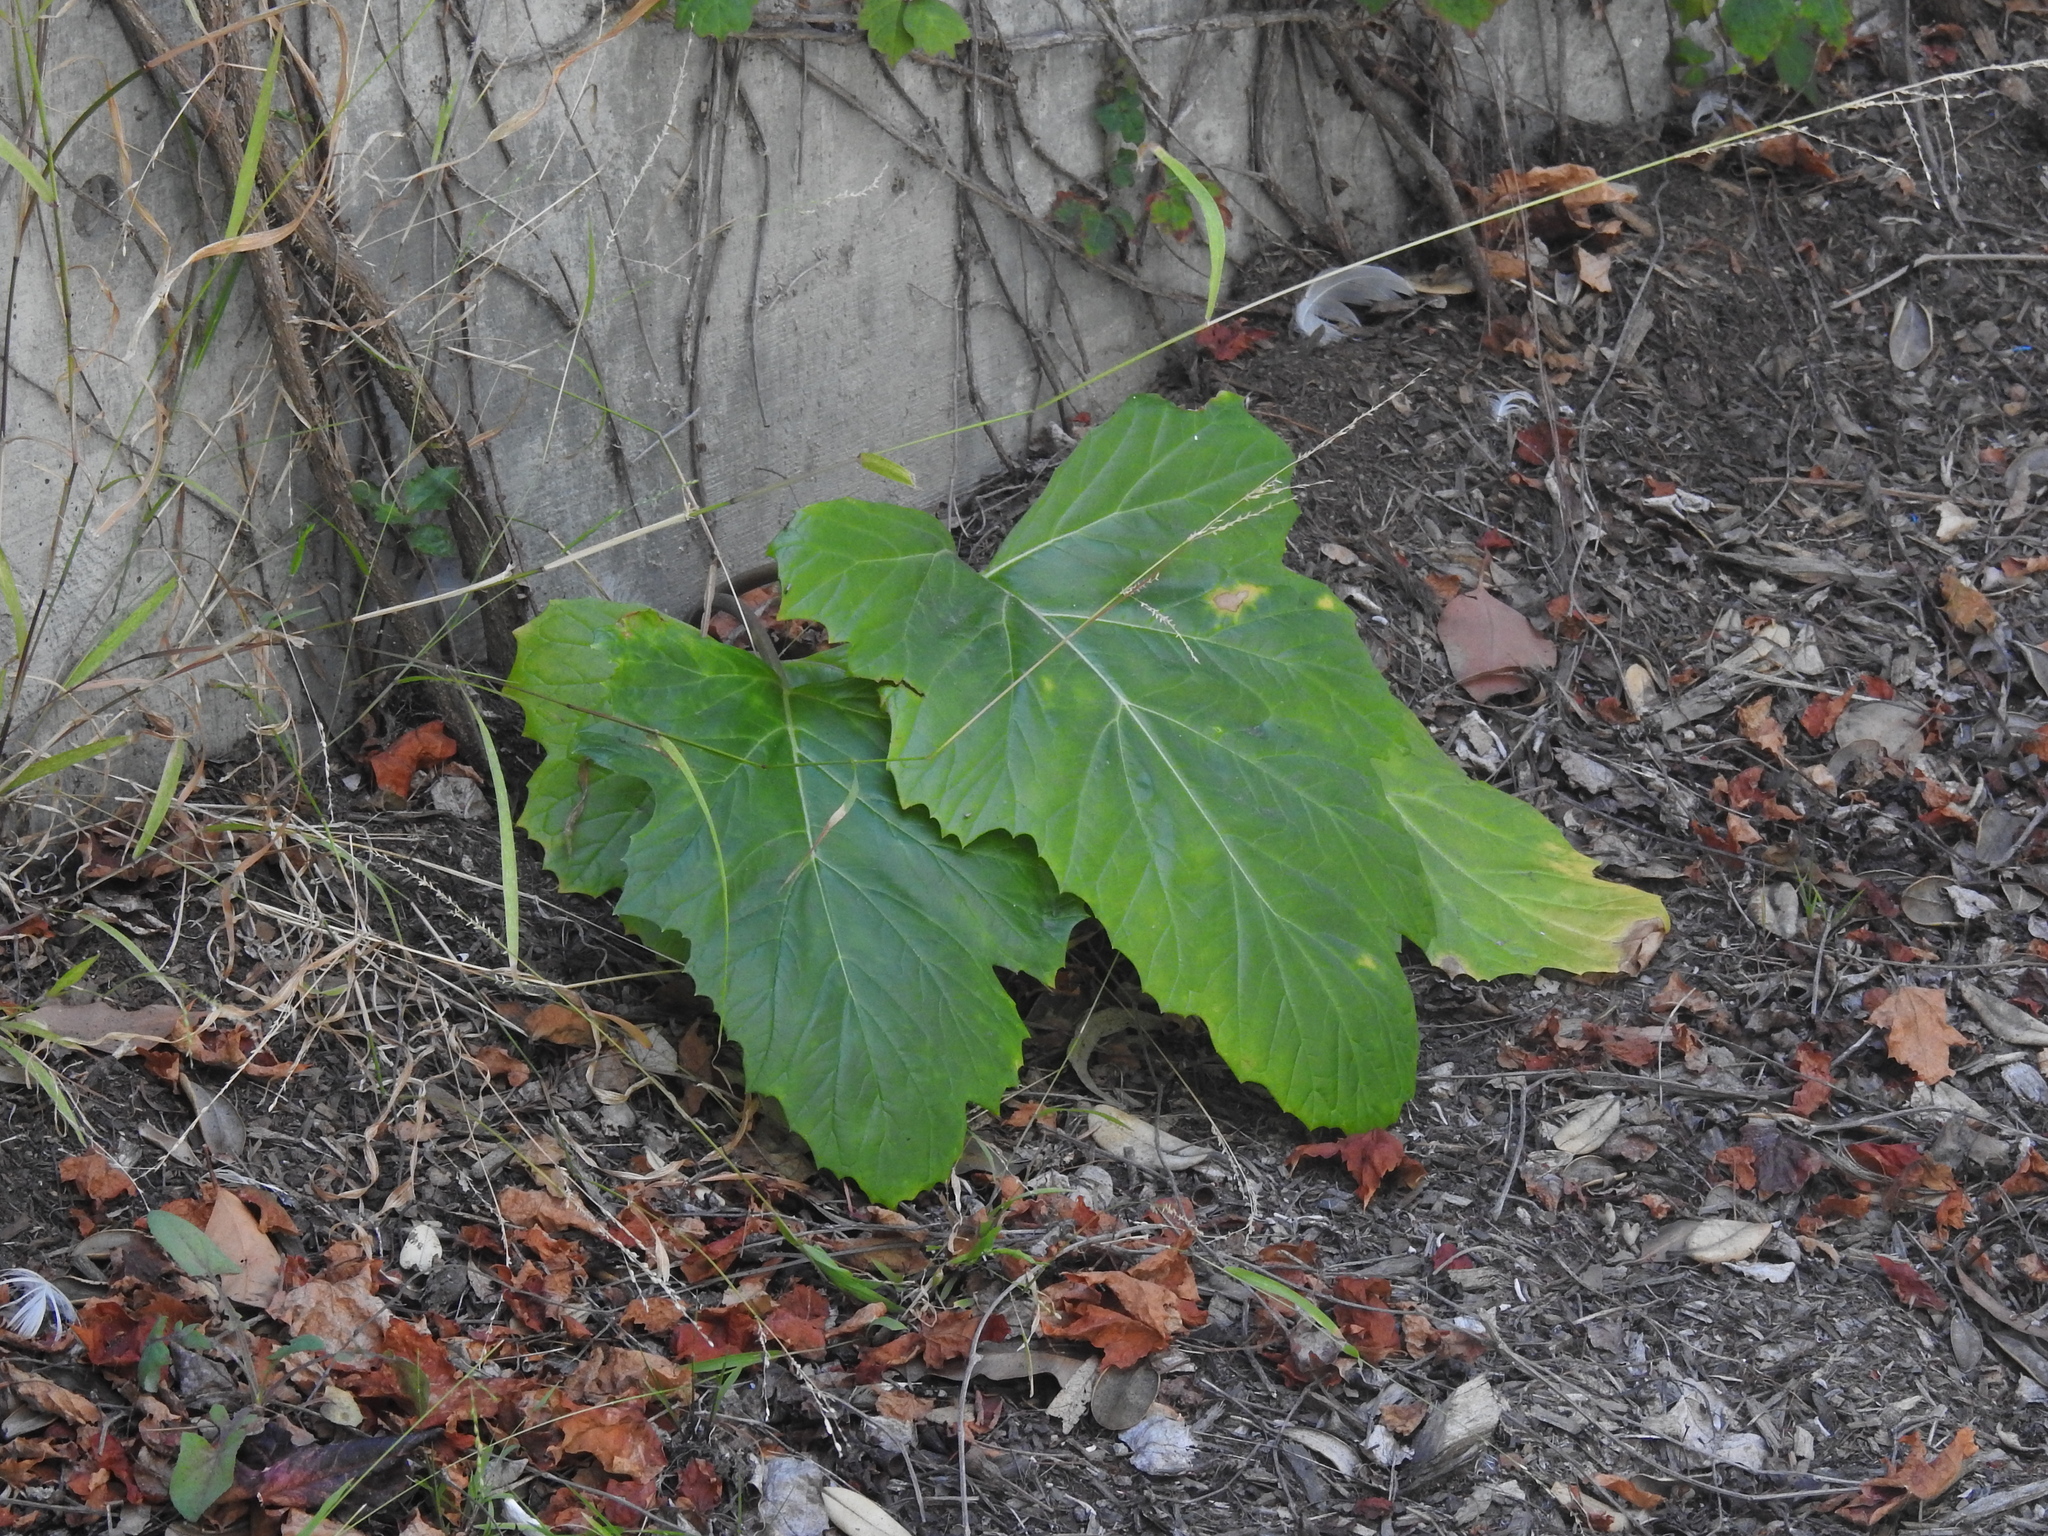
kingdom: Plantae
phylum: Tracheophyta
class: Magnoliopsida
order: Lamiales
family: Acanthaceae
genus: Acanthus
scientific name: Acanthus mollis
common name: Bear's-breech
